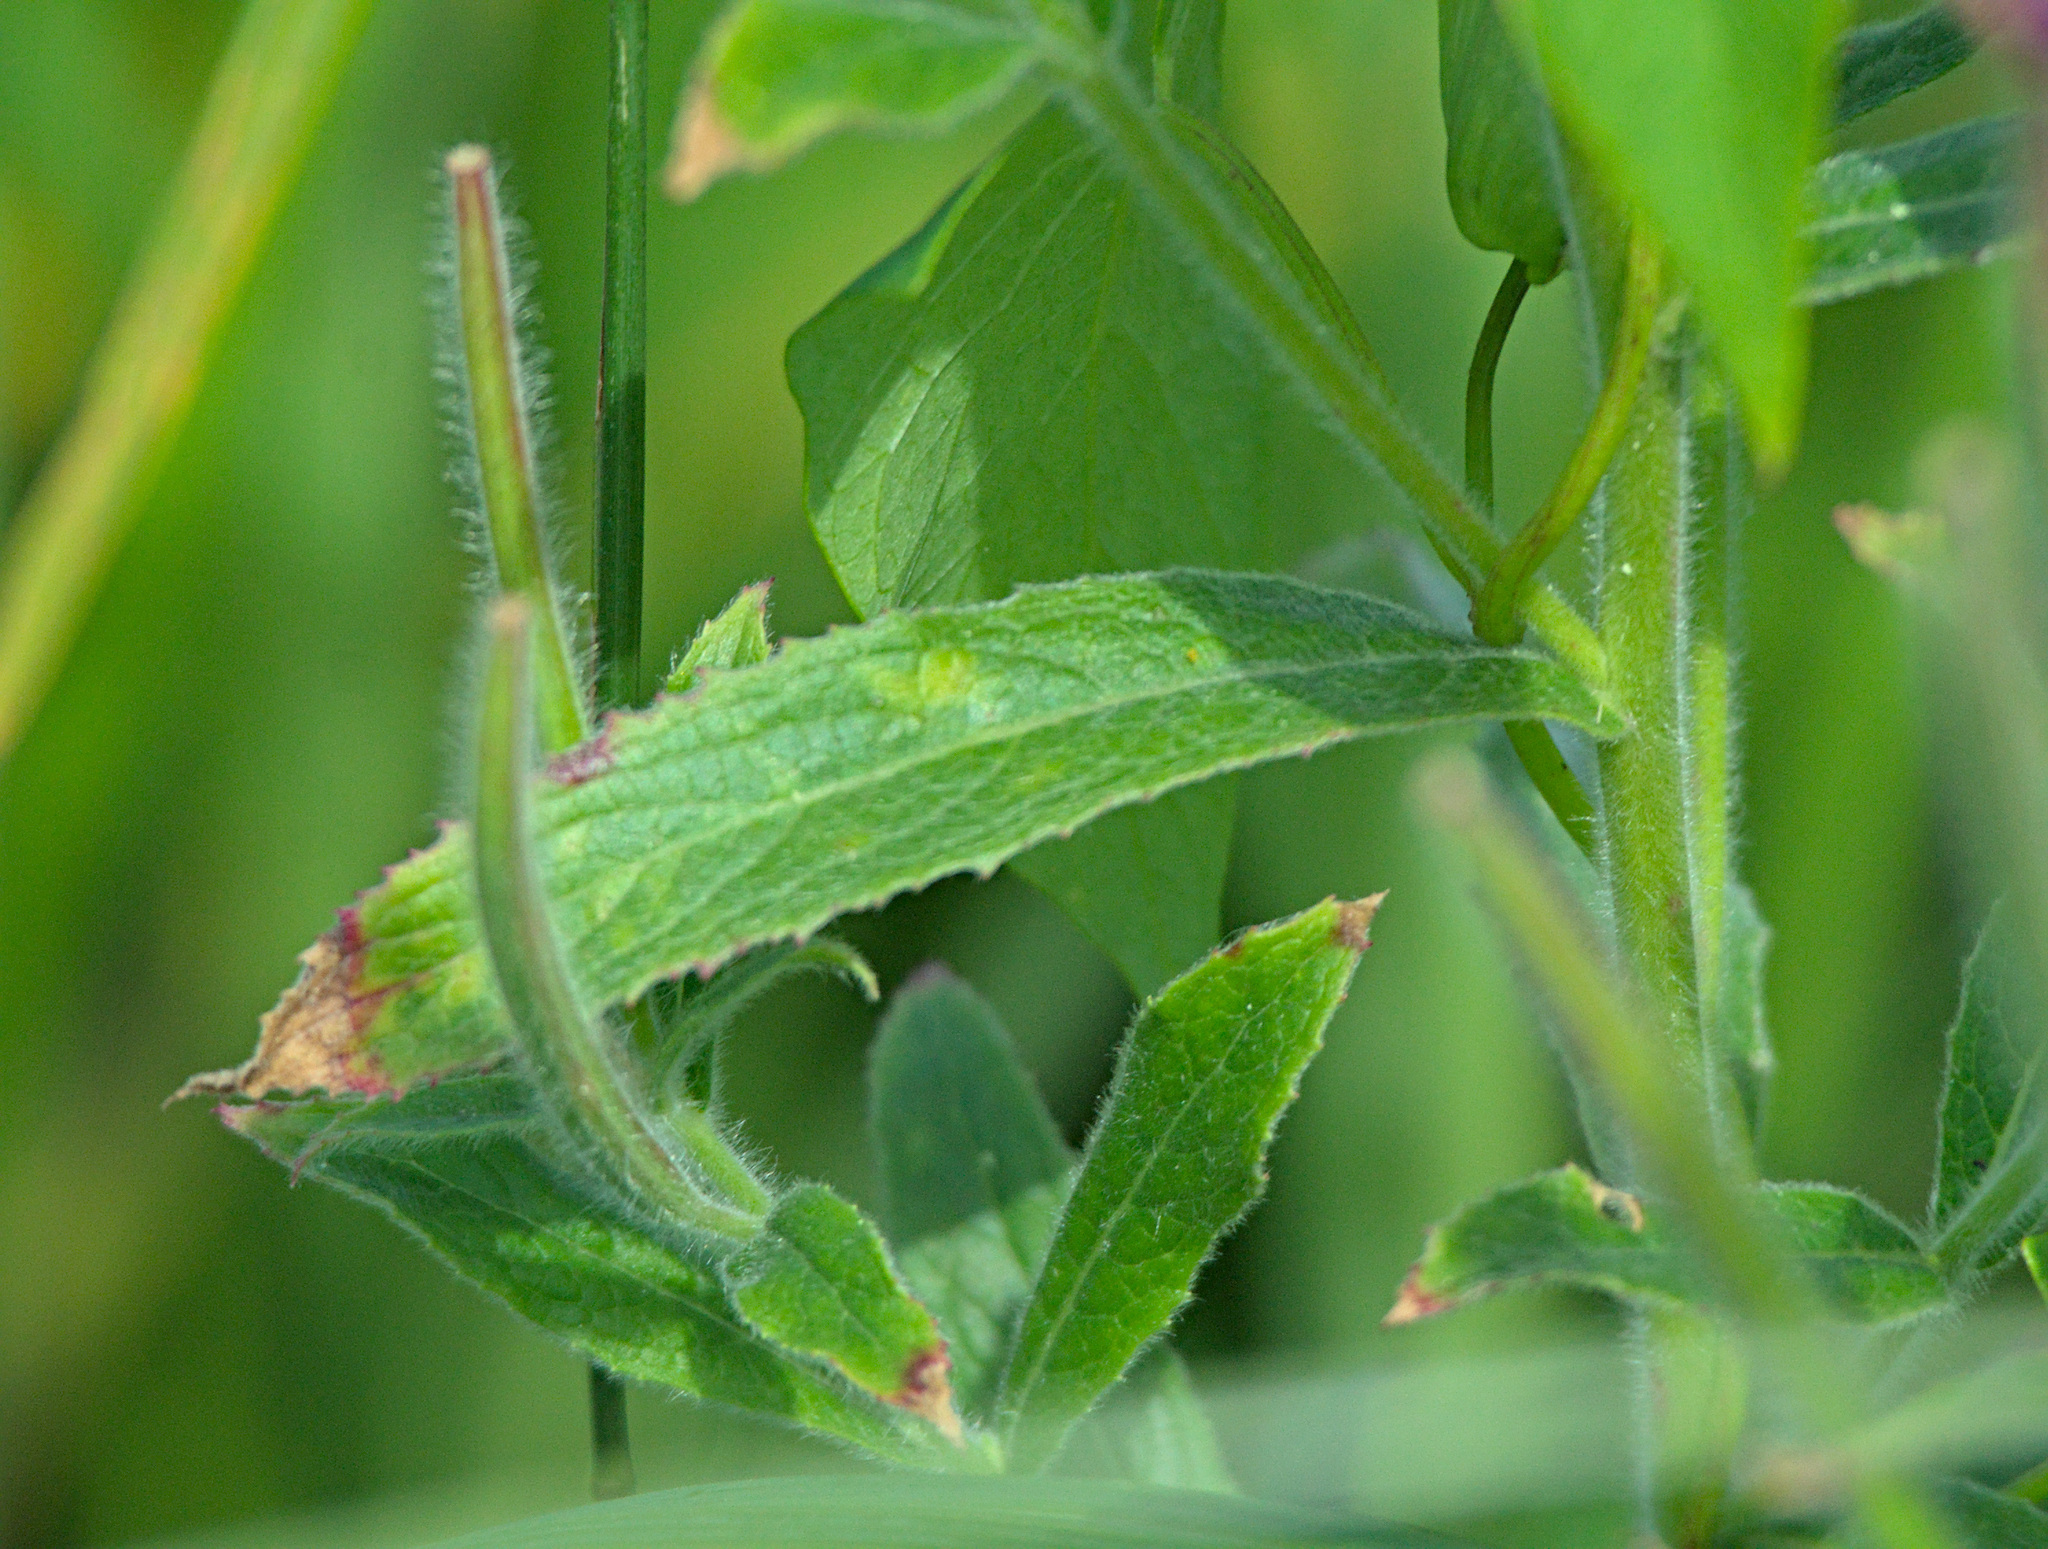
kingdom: Plantae
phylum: Tracheophyta
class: Magnoliopsida
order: Myrtales
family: Onagraceae
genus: Epilobium
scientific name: Epilobium hirsutum
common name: Great willowherb
